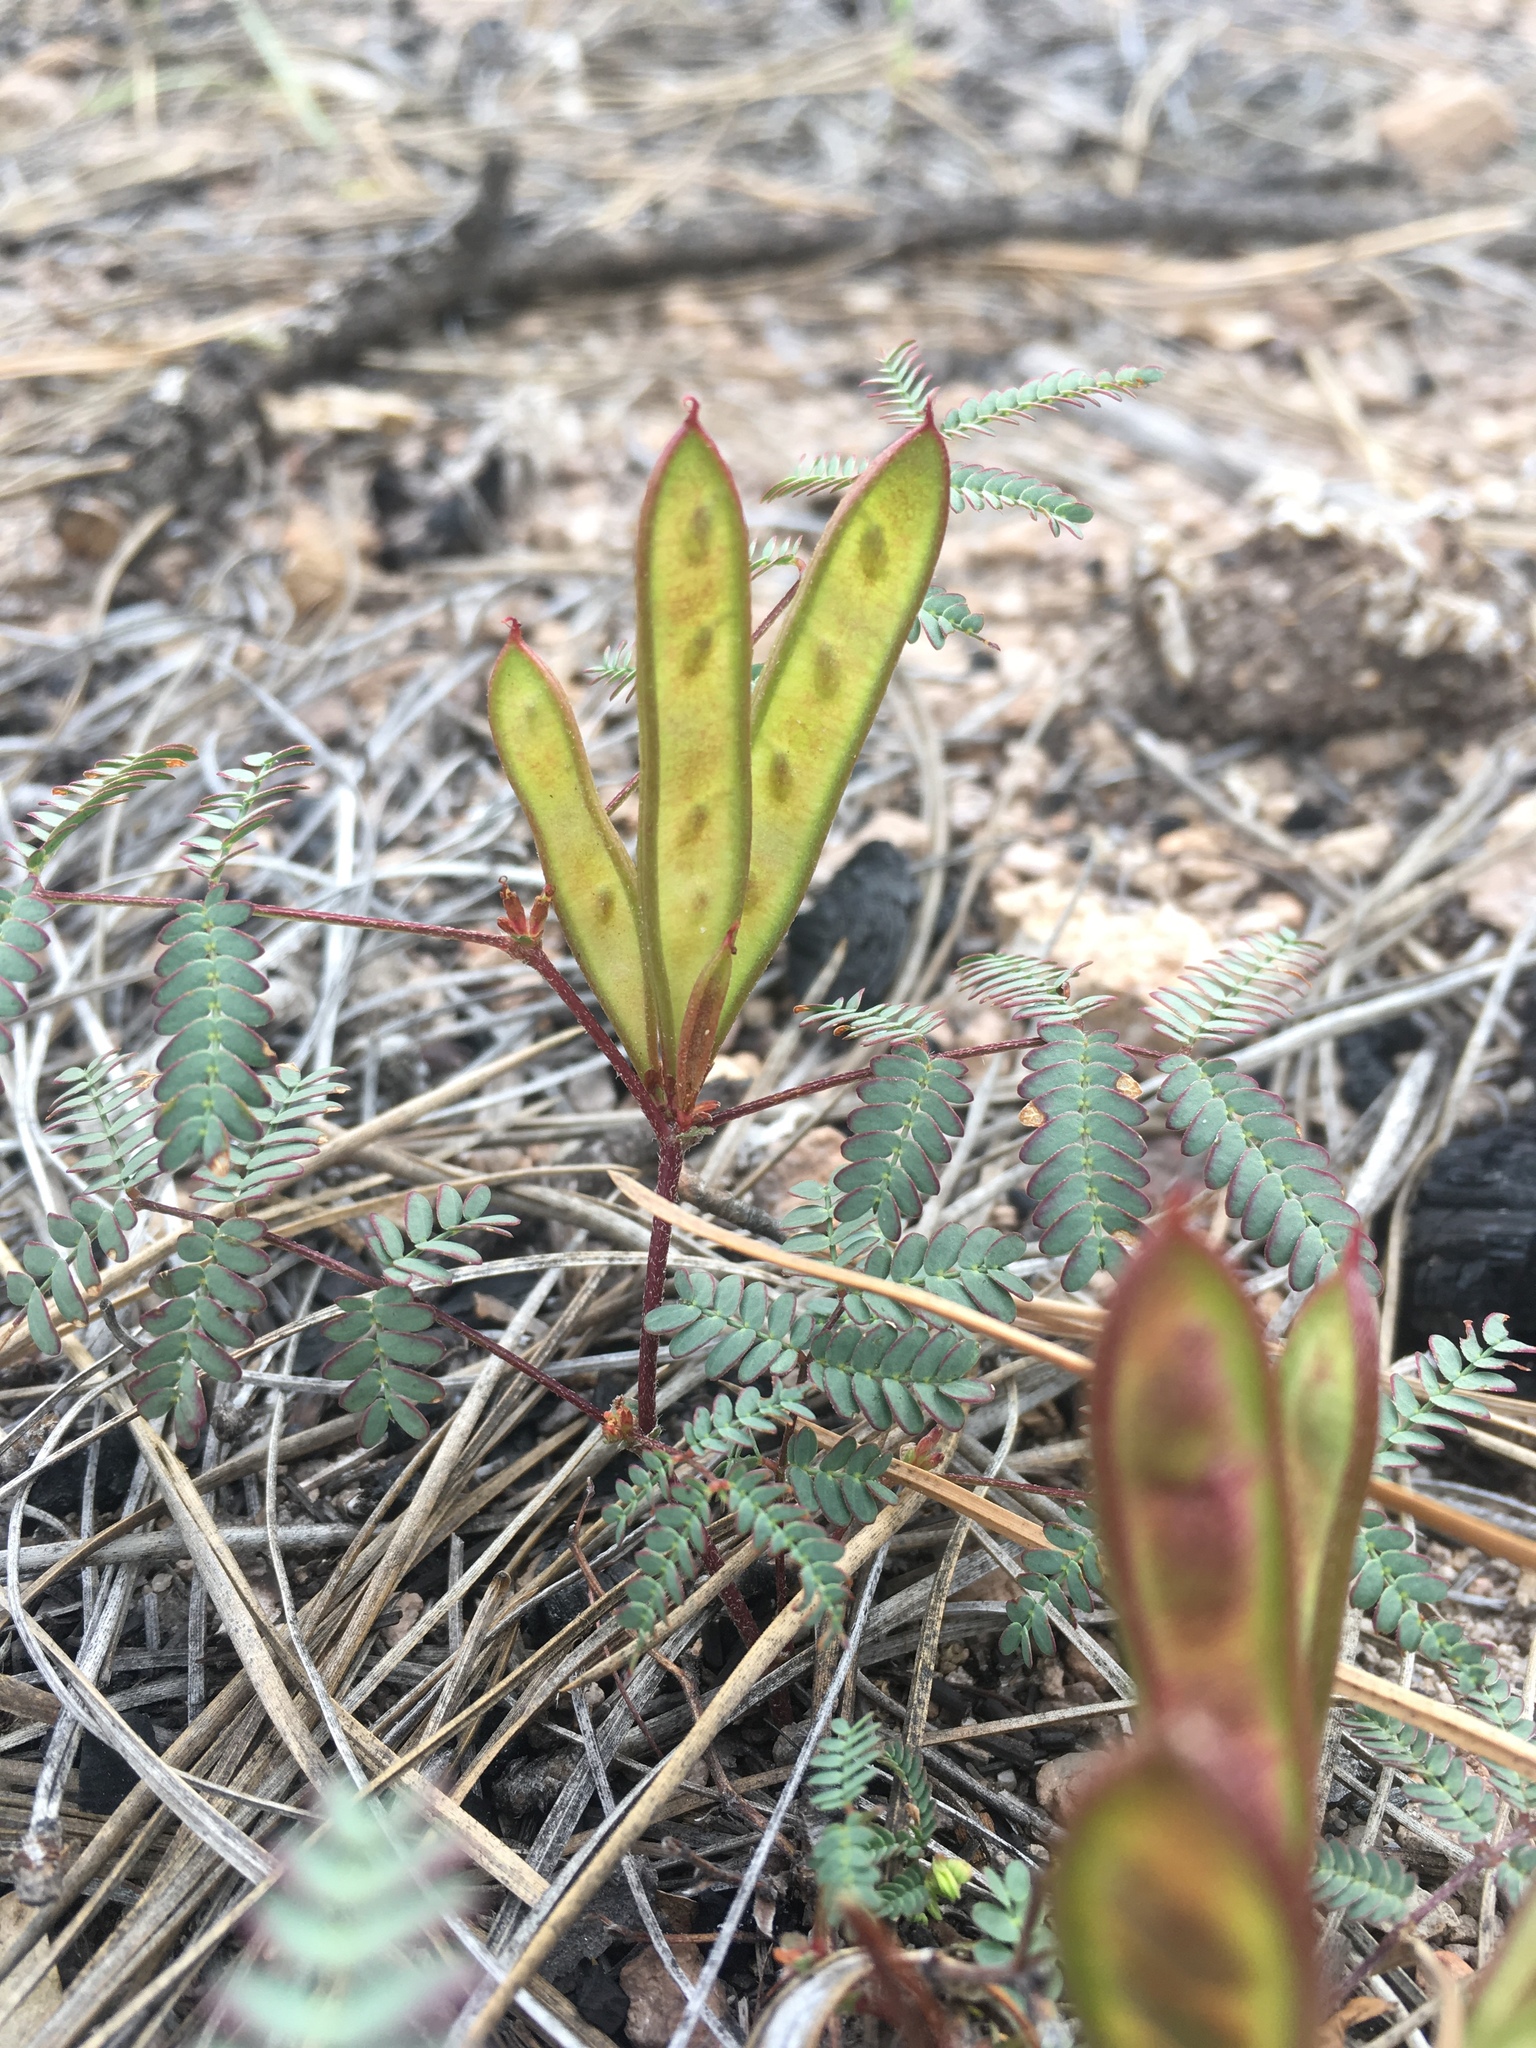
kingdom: Plantae
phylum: Tracheophyta
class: Magnoliopsida
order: Fabales
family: Fabaceae
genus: Calliandra
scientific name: Calliandra humilis
